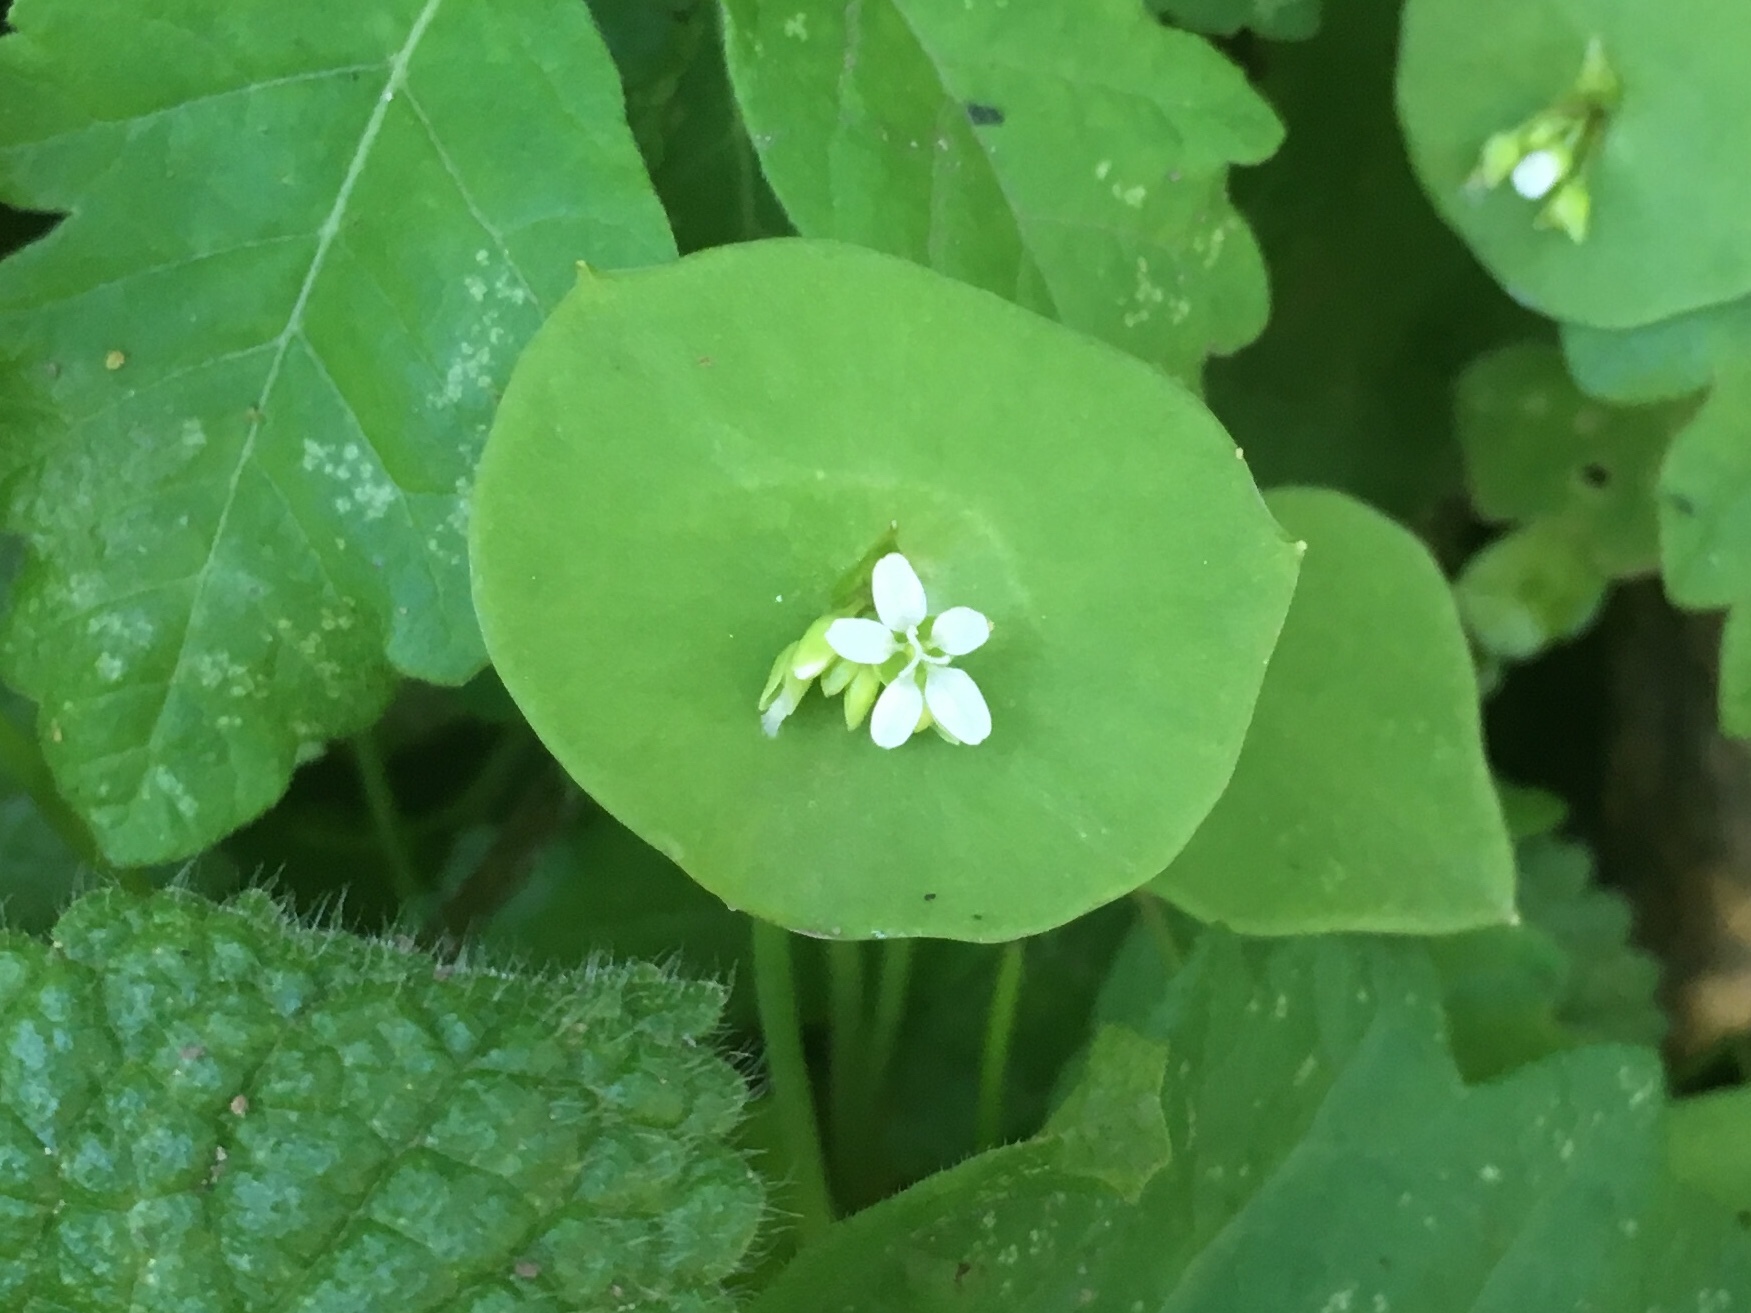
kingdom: Plantae
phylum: Tracheophyta
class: Magnoliopsida
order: Caryophyllales
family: Montiaceae
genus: Claytonia
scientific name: Claytonia perfoliata
